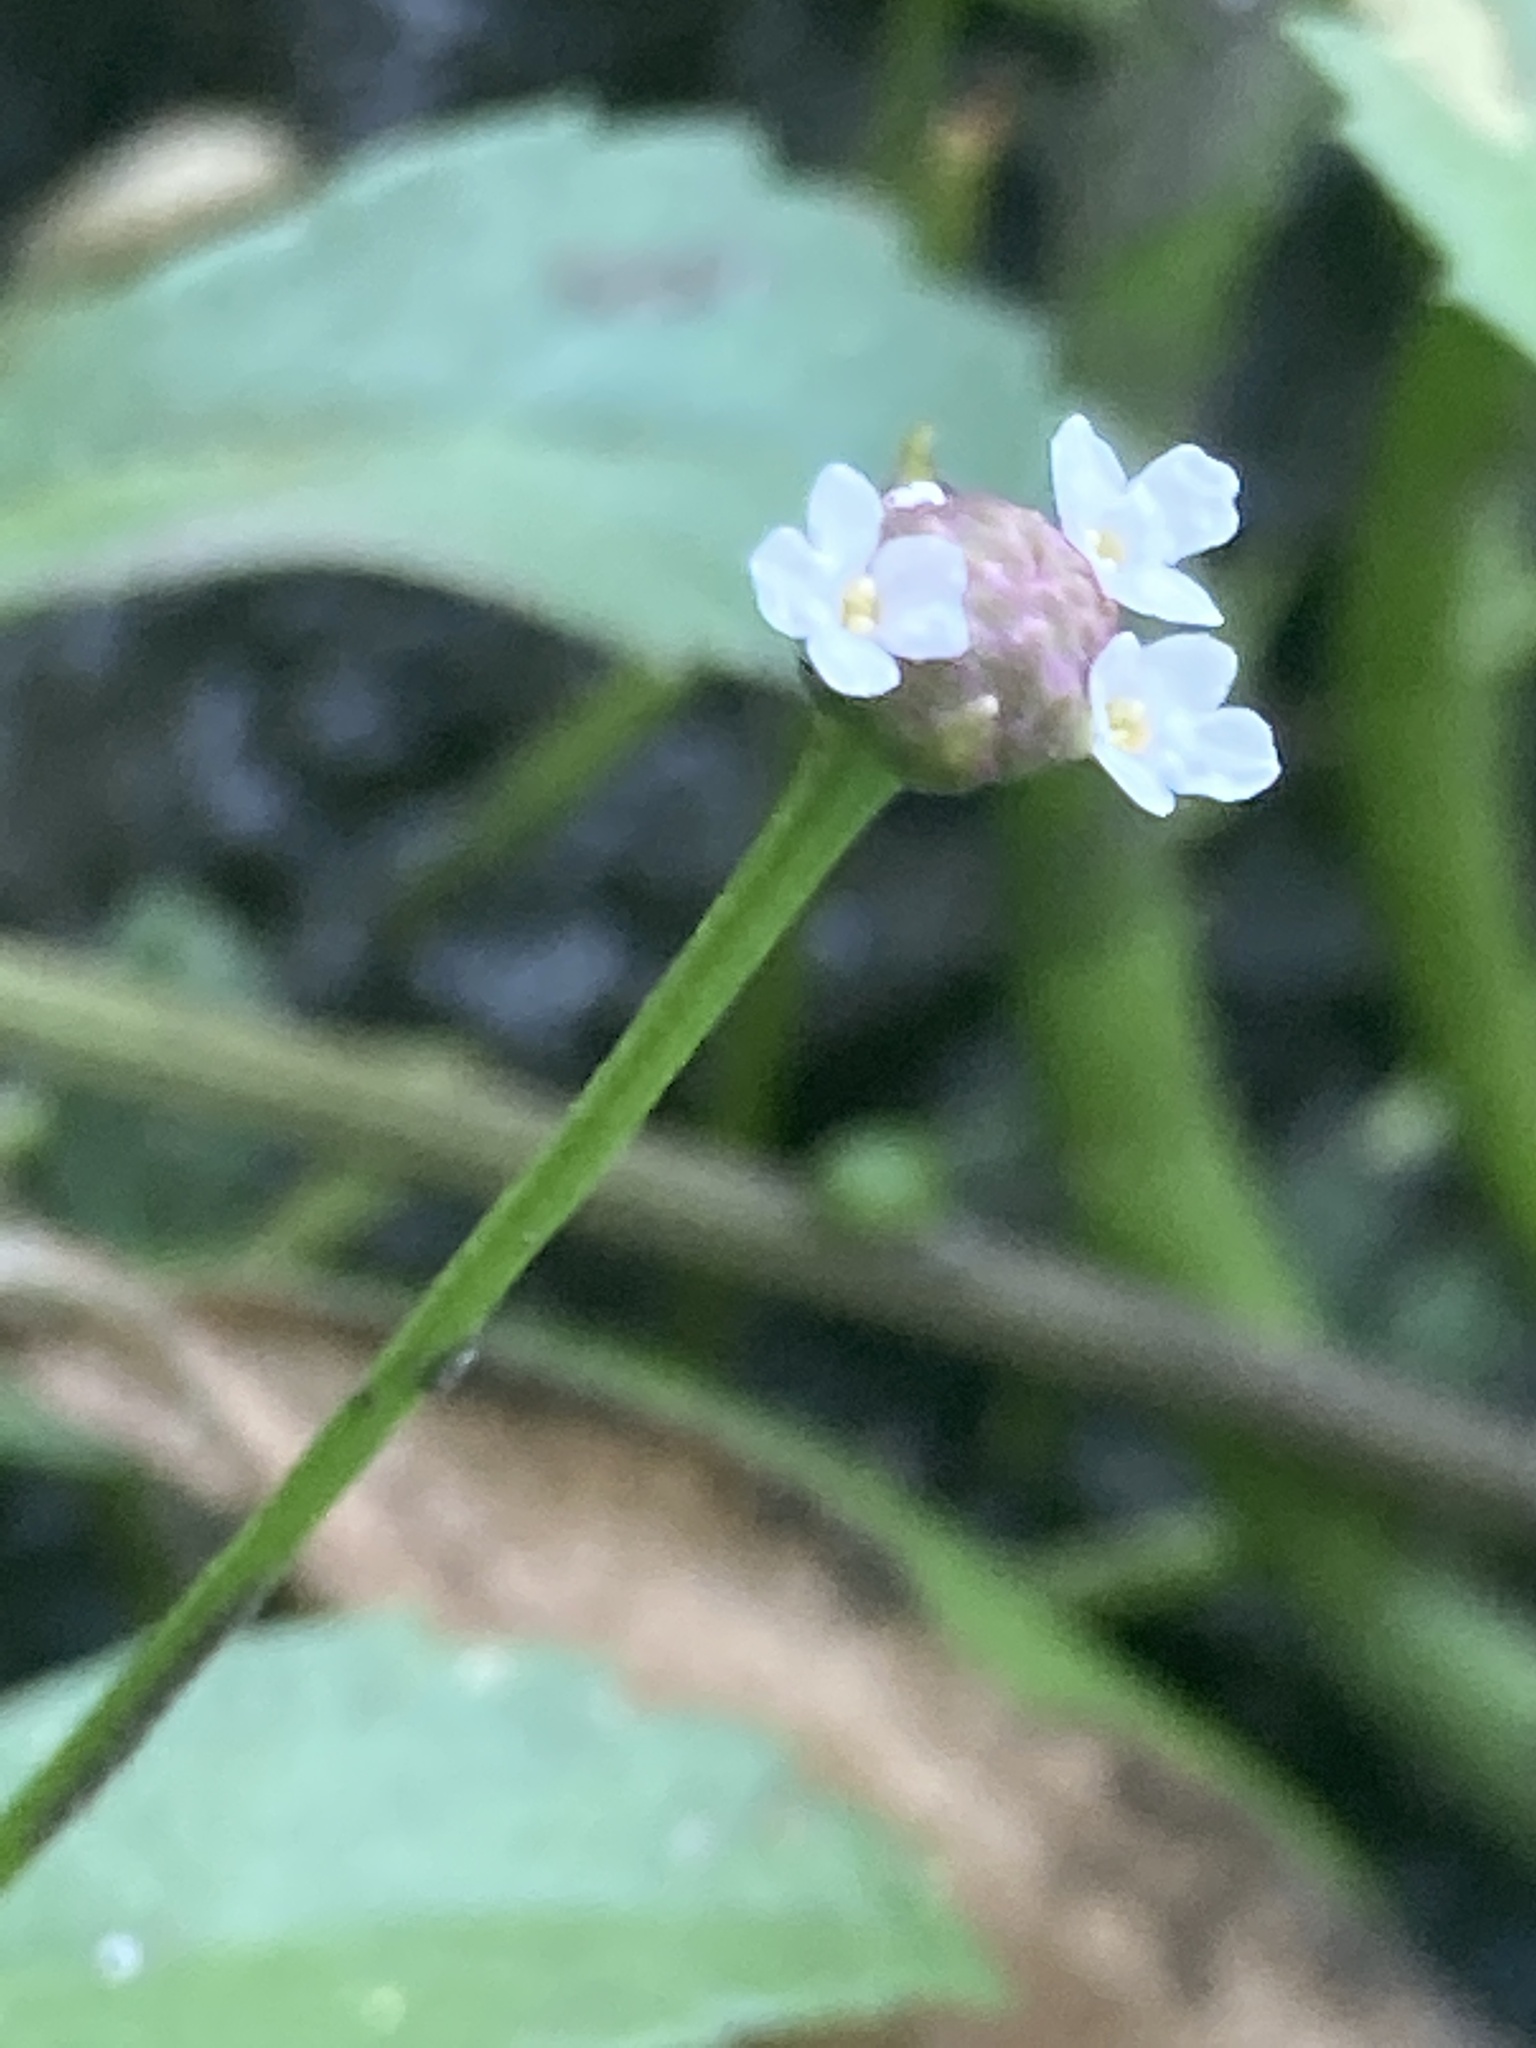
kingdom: Plantae
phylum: Tracheophyta
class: Magnoliopsida
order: Lamiales
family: Verbenaceae
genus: Phyla
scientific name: Phyla nodiflora
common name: Frogfruit
